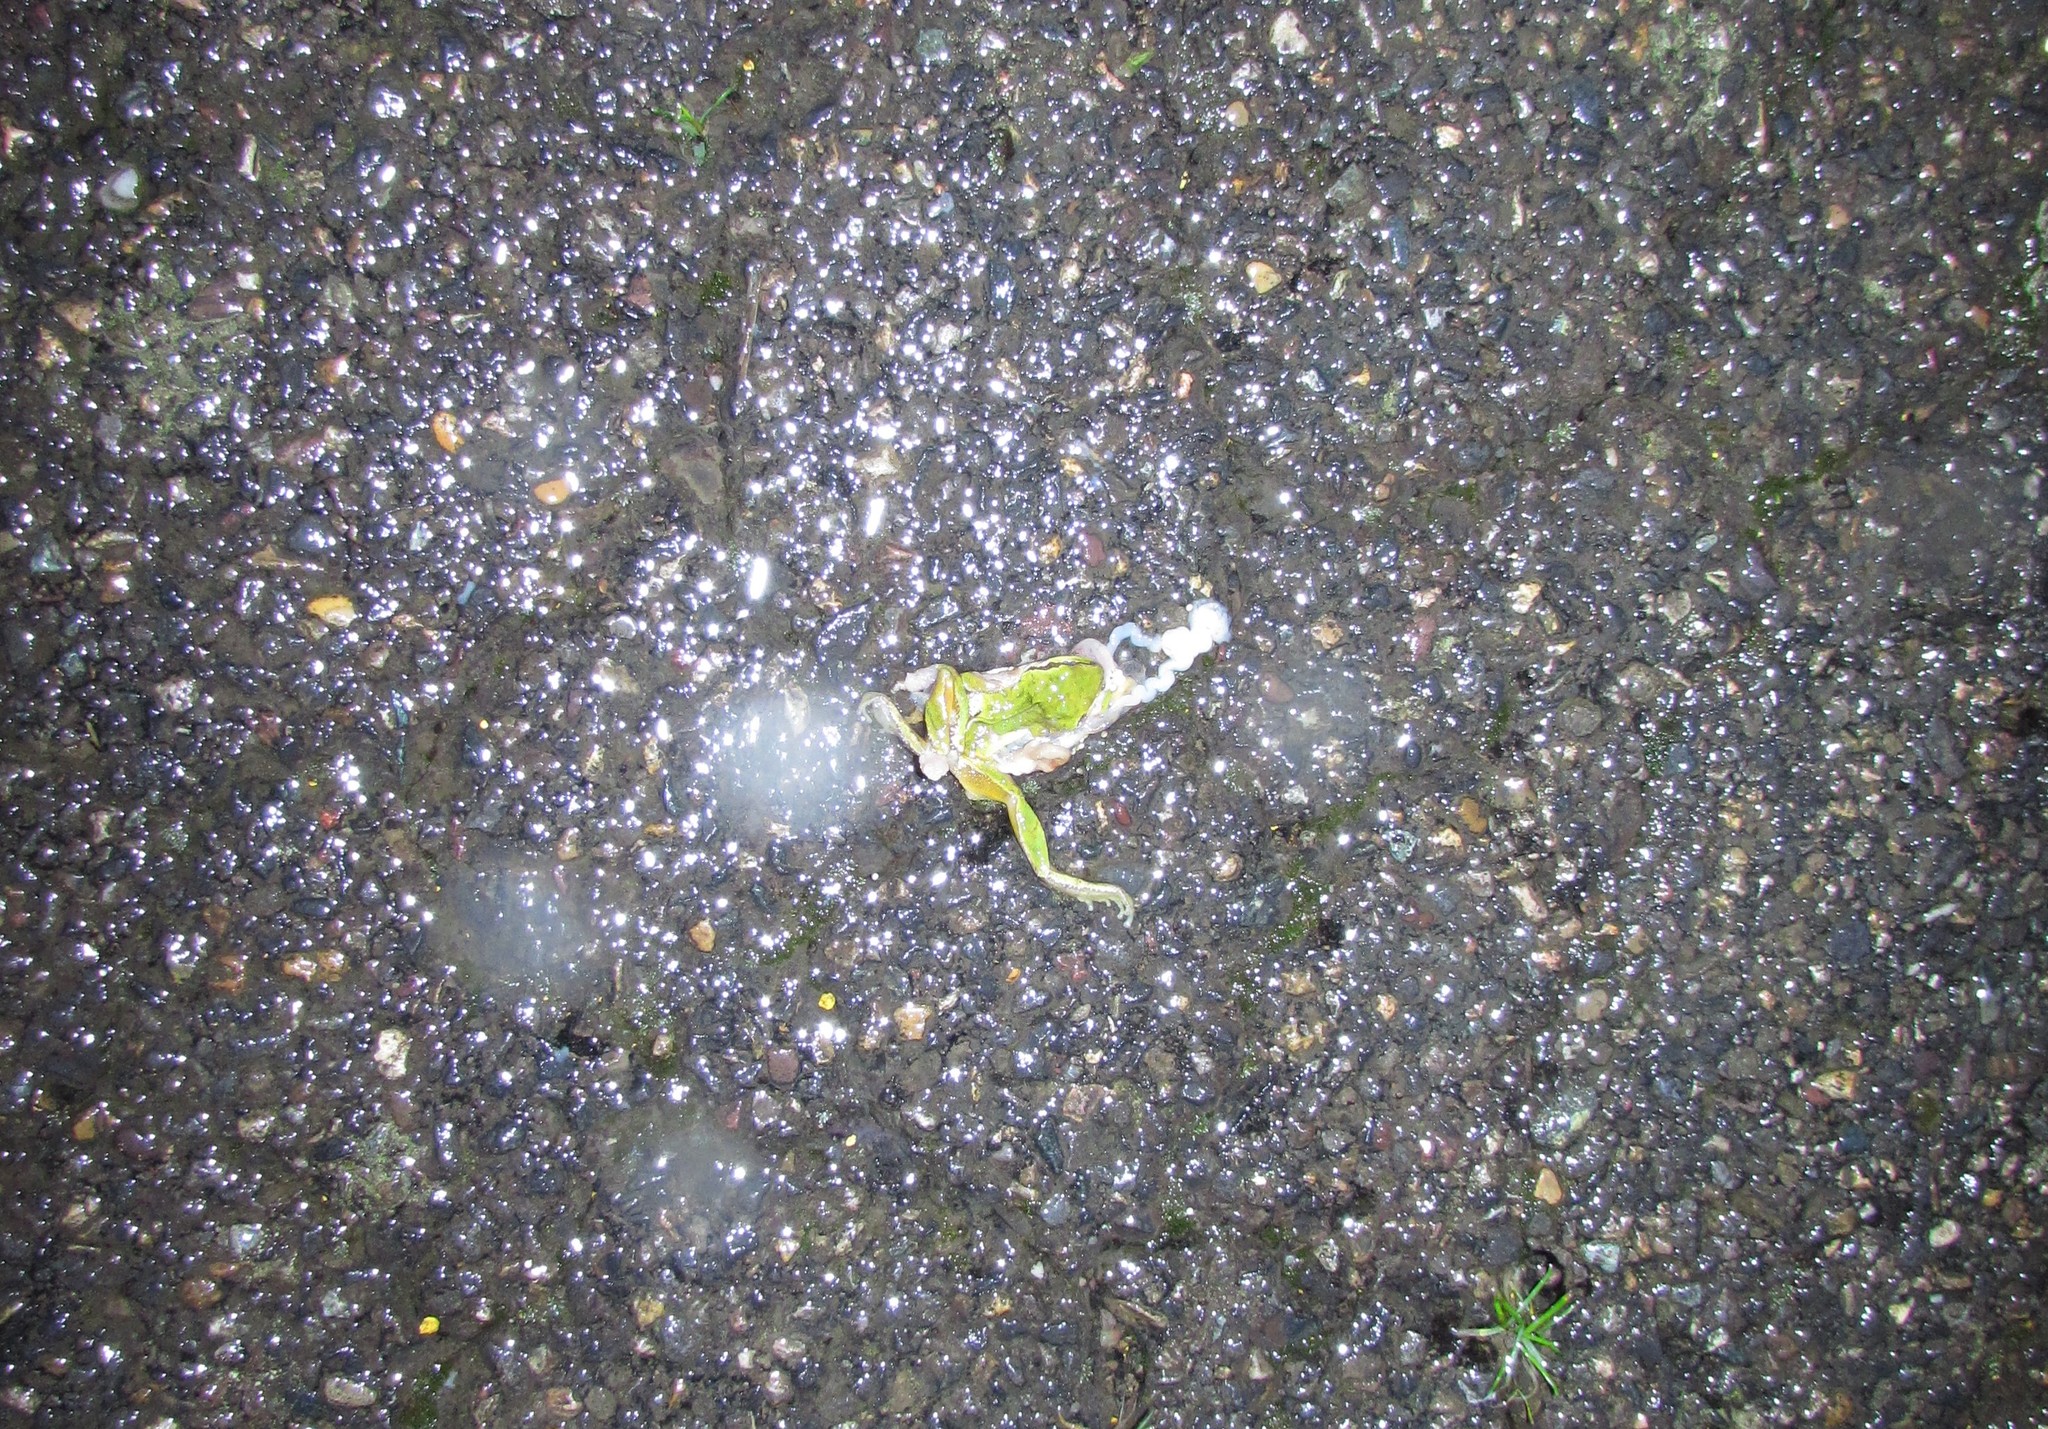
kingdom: Animalia
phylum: Chordata
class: Amphibia
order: Anura
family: Hylidae
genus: Pseudacris
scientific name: Pseudacris regilla
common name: Pacific chorus frog
